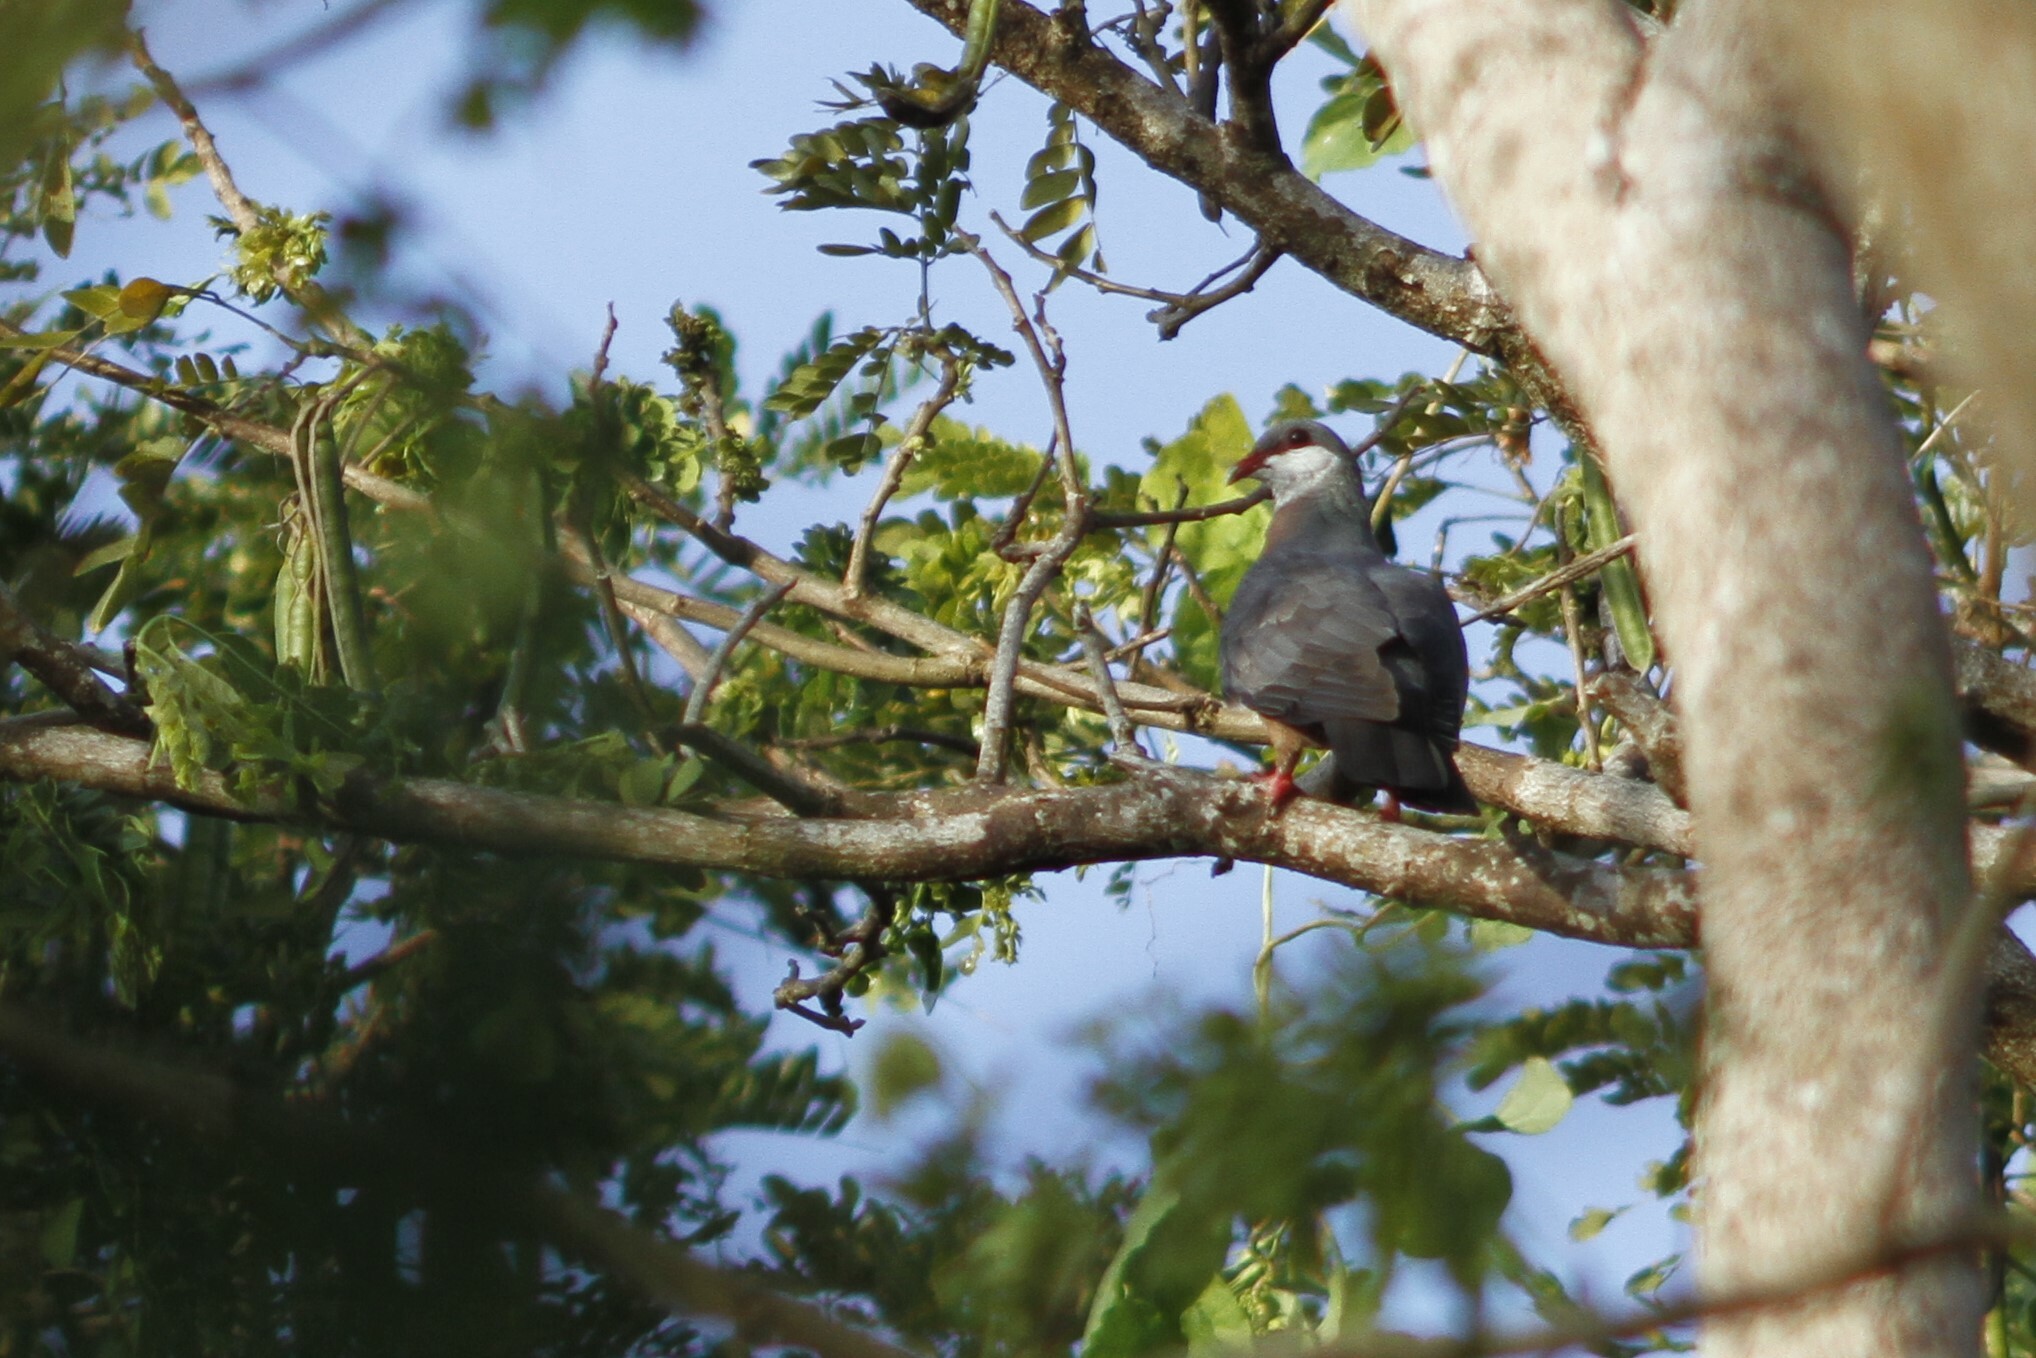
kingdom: Animalia
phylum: Chordata
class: Aves
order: Columbiformes
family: Columbidae
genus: Columba
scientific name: Columba vitiensis
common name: Metallic pigeon
